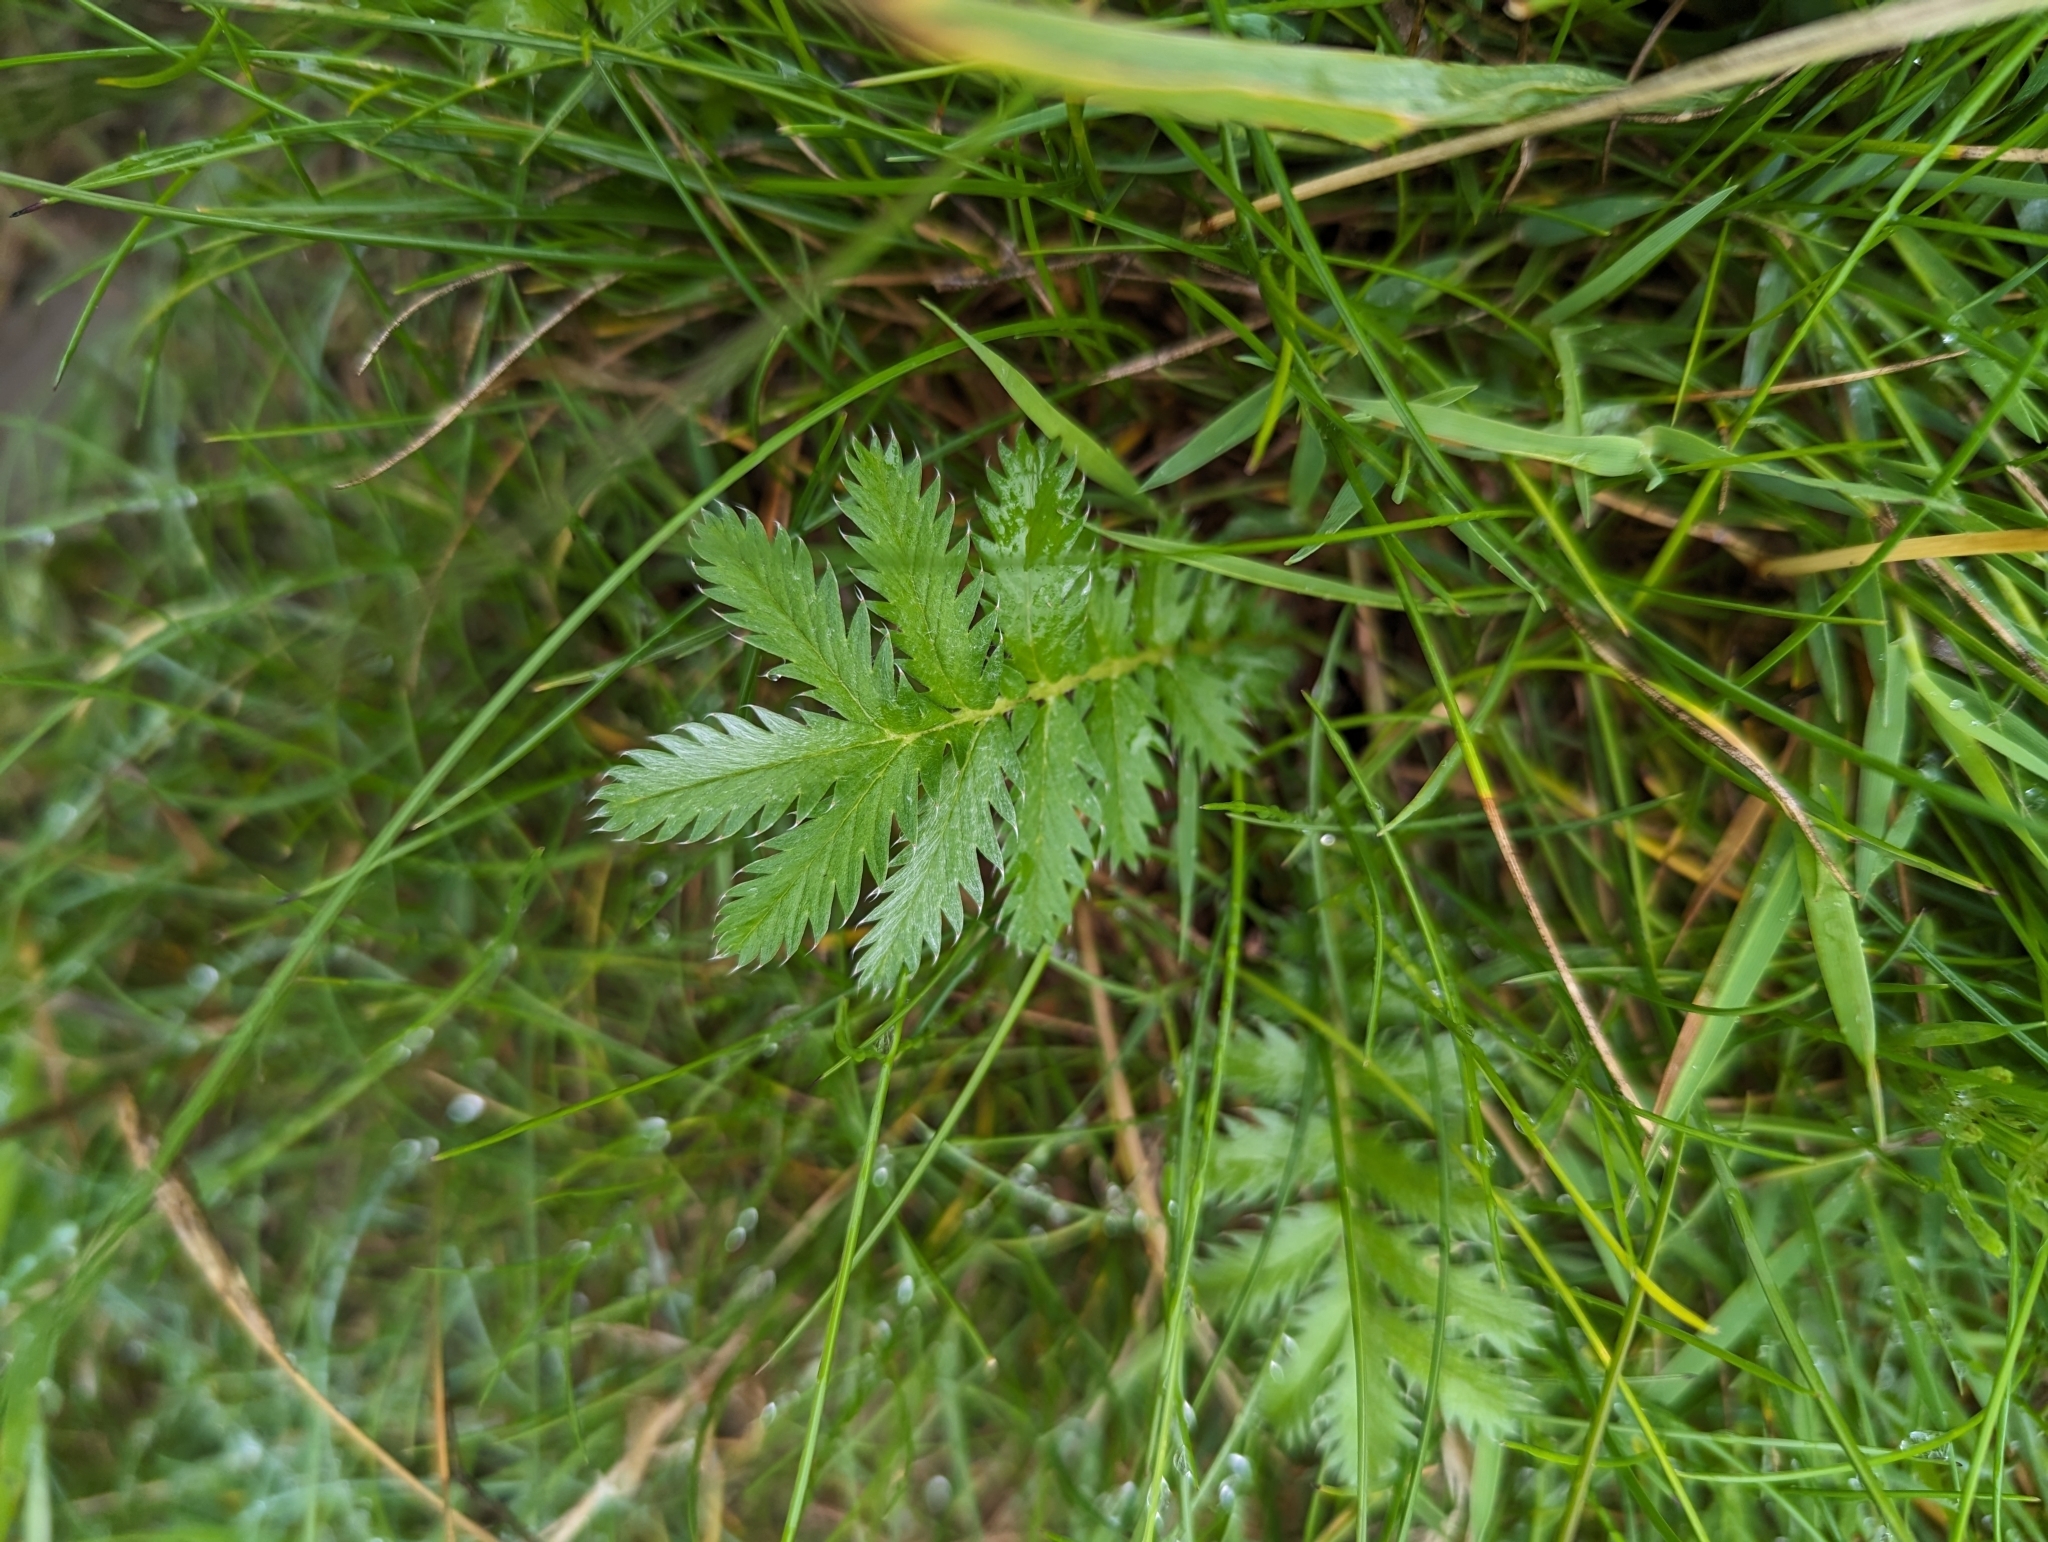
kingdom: Plantae
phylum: Tracheophyta
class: Magnoliopsida
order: Rosales
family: Rosaceae
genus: Argentina
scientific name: Argentina anserina
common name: Common silverweed
